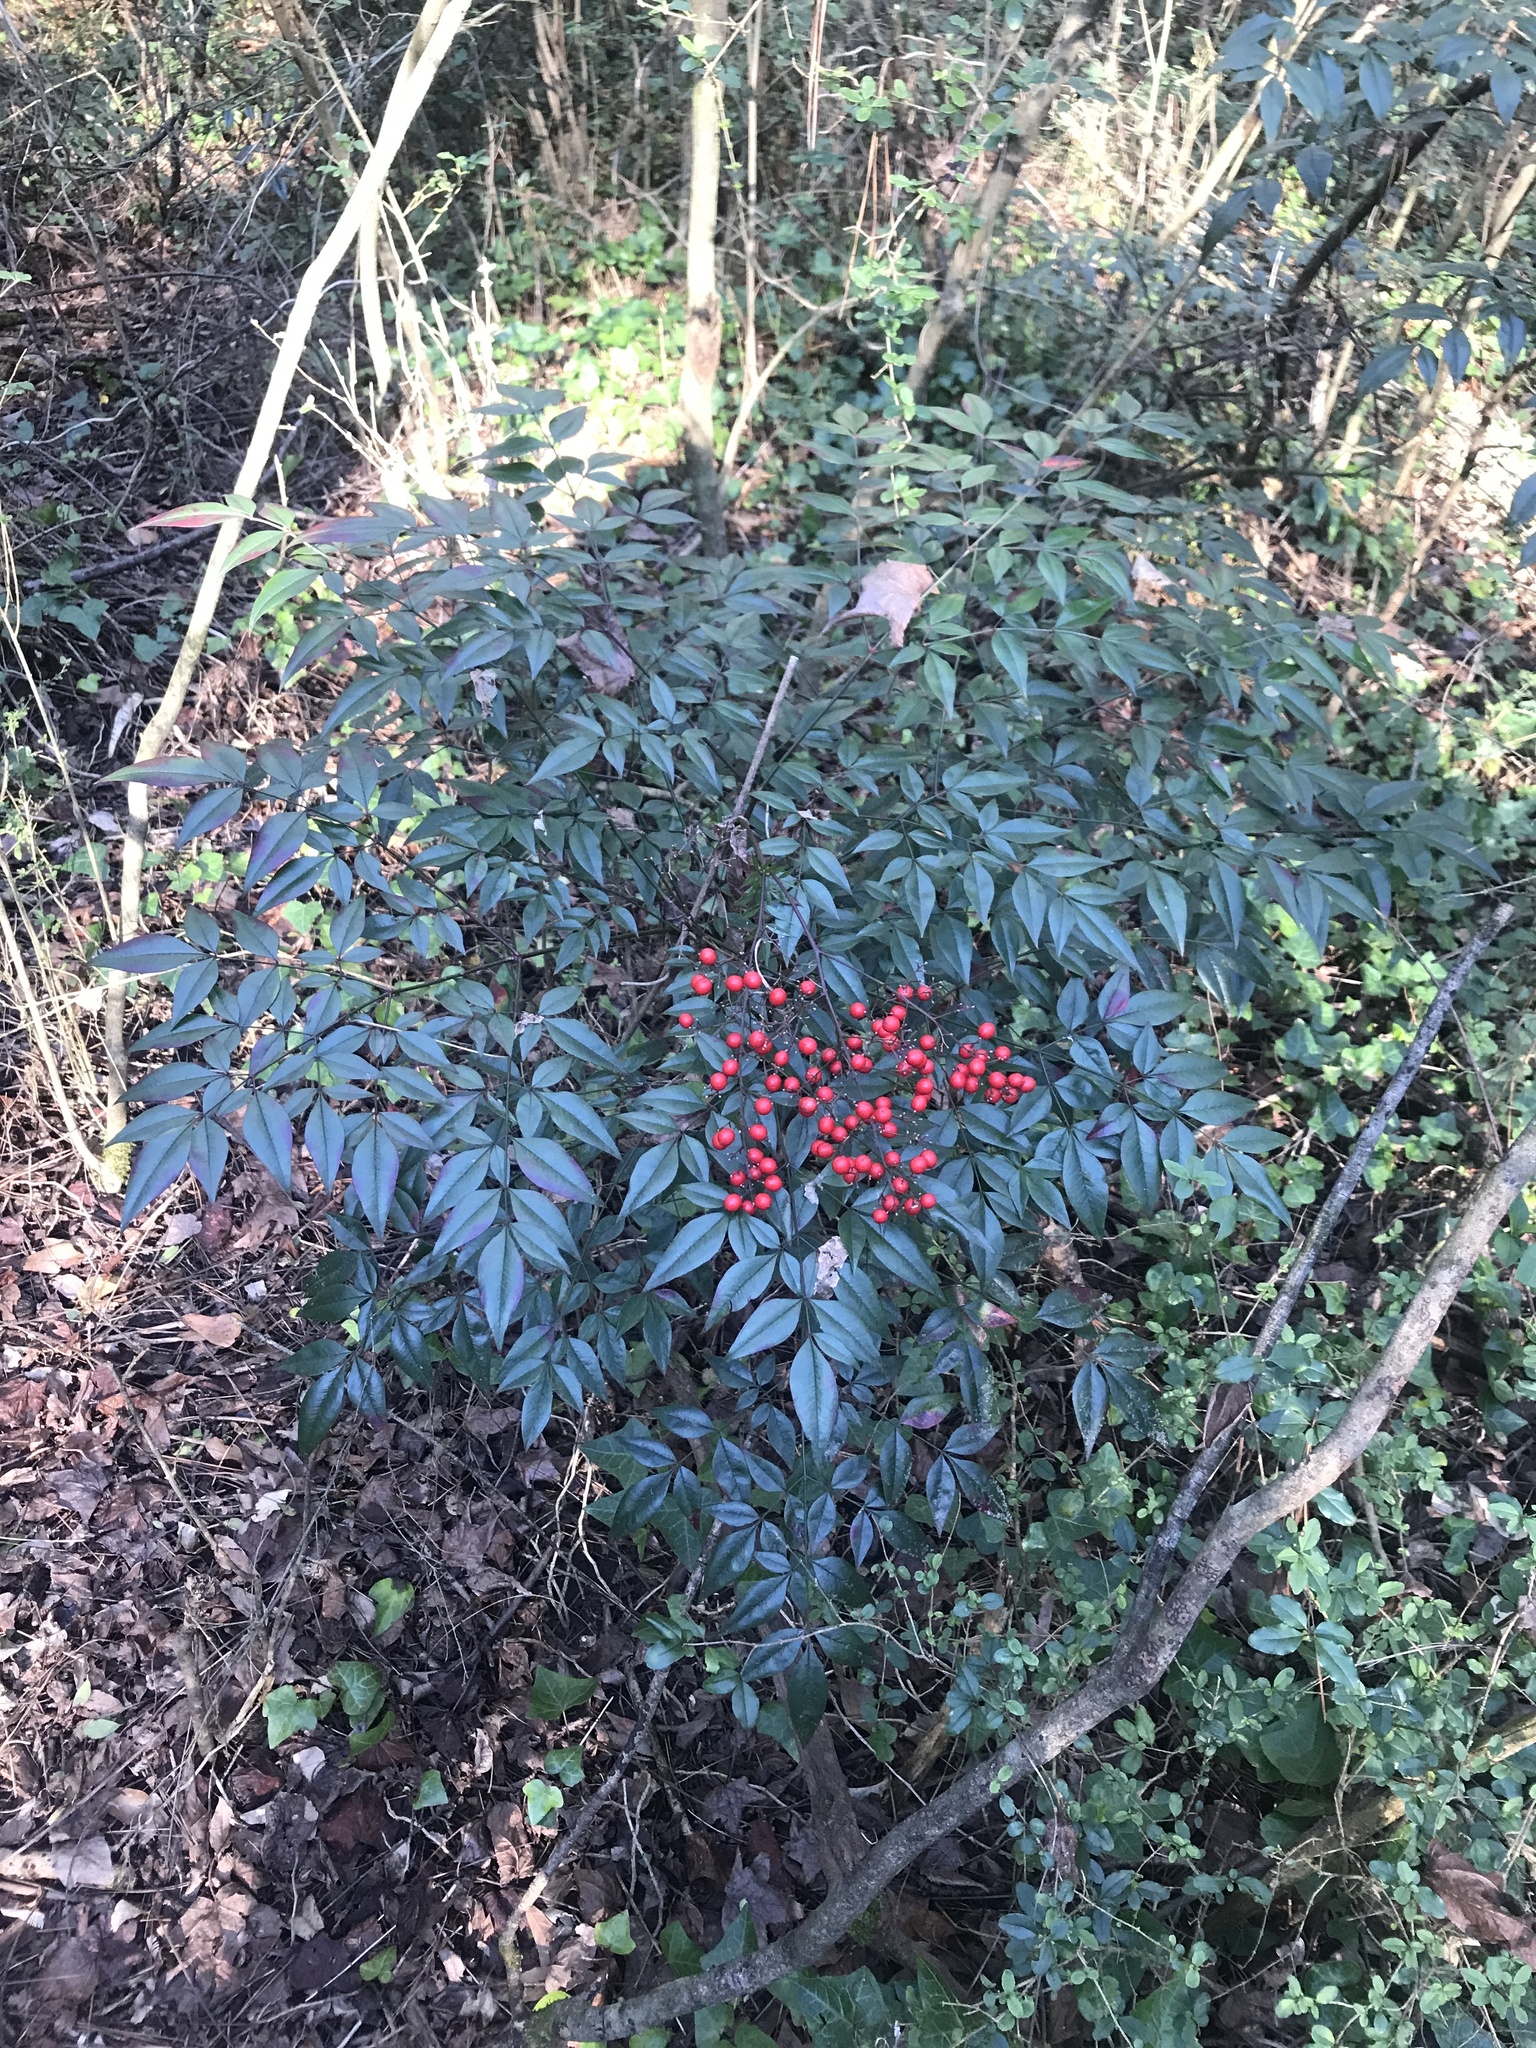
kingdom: Plantae
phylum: Tracheophyta
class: Magnoliopsida
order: Ranunculales
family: Berberidaceae
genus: Nandina
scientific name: Nandina domestica
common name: Sacred bamboo
